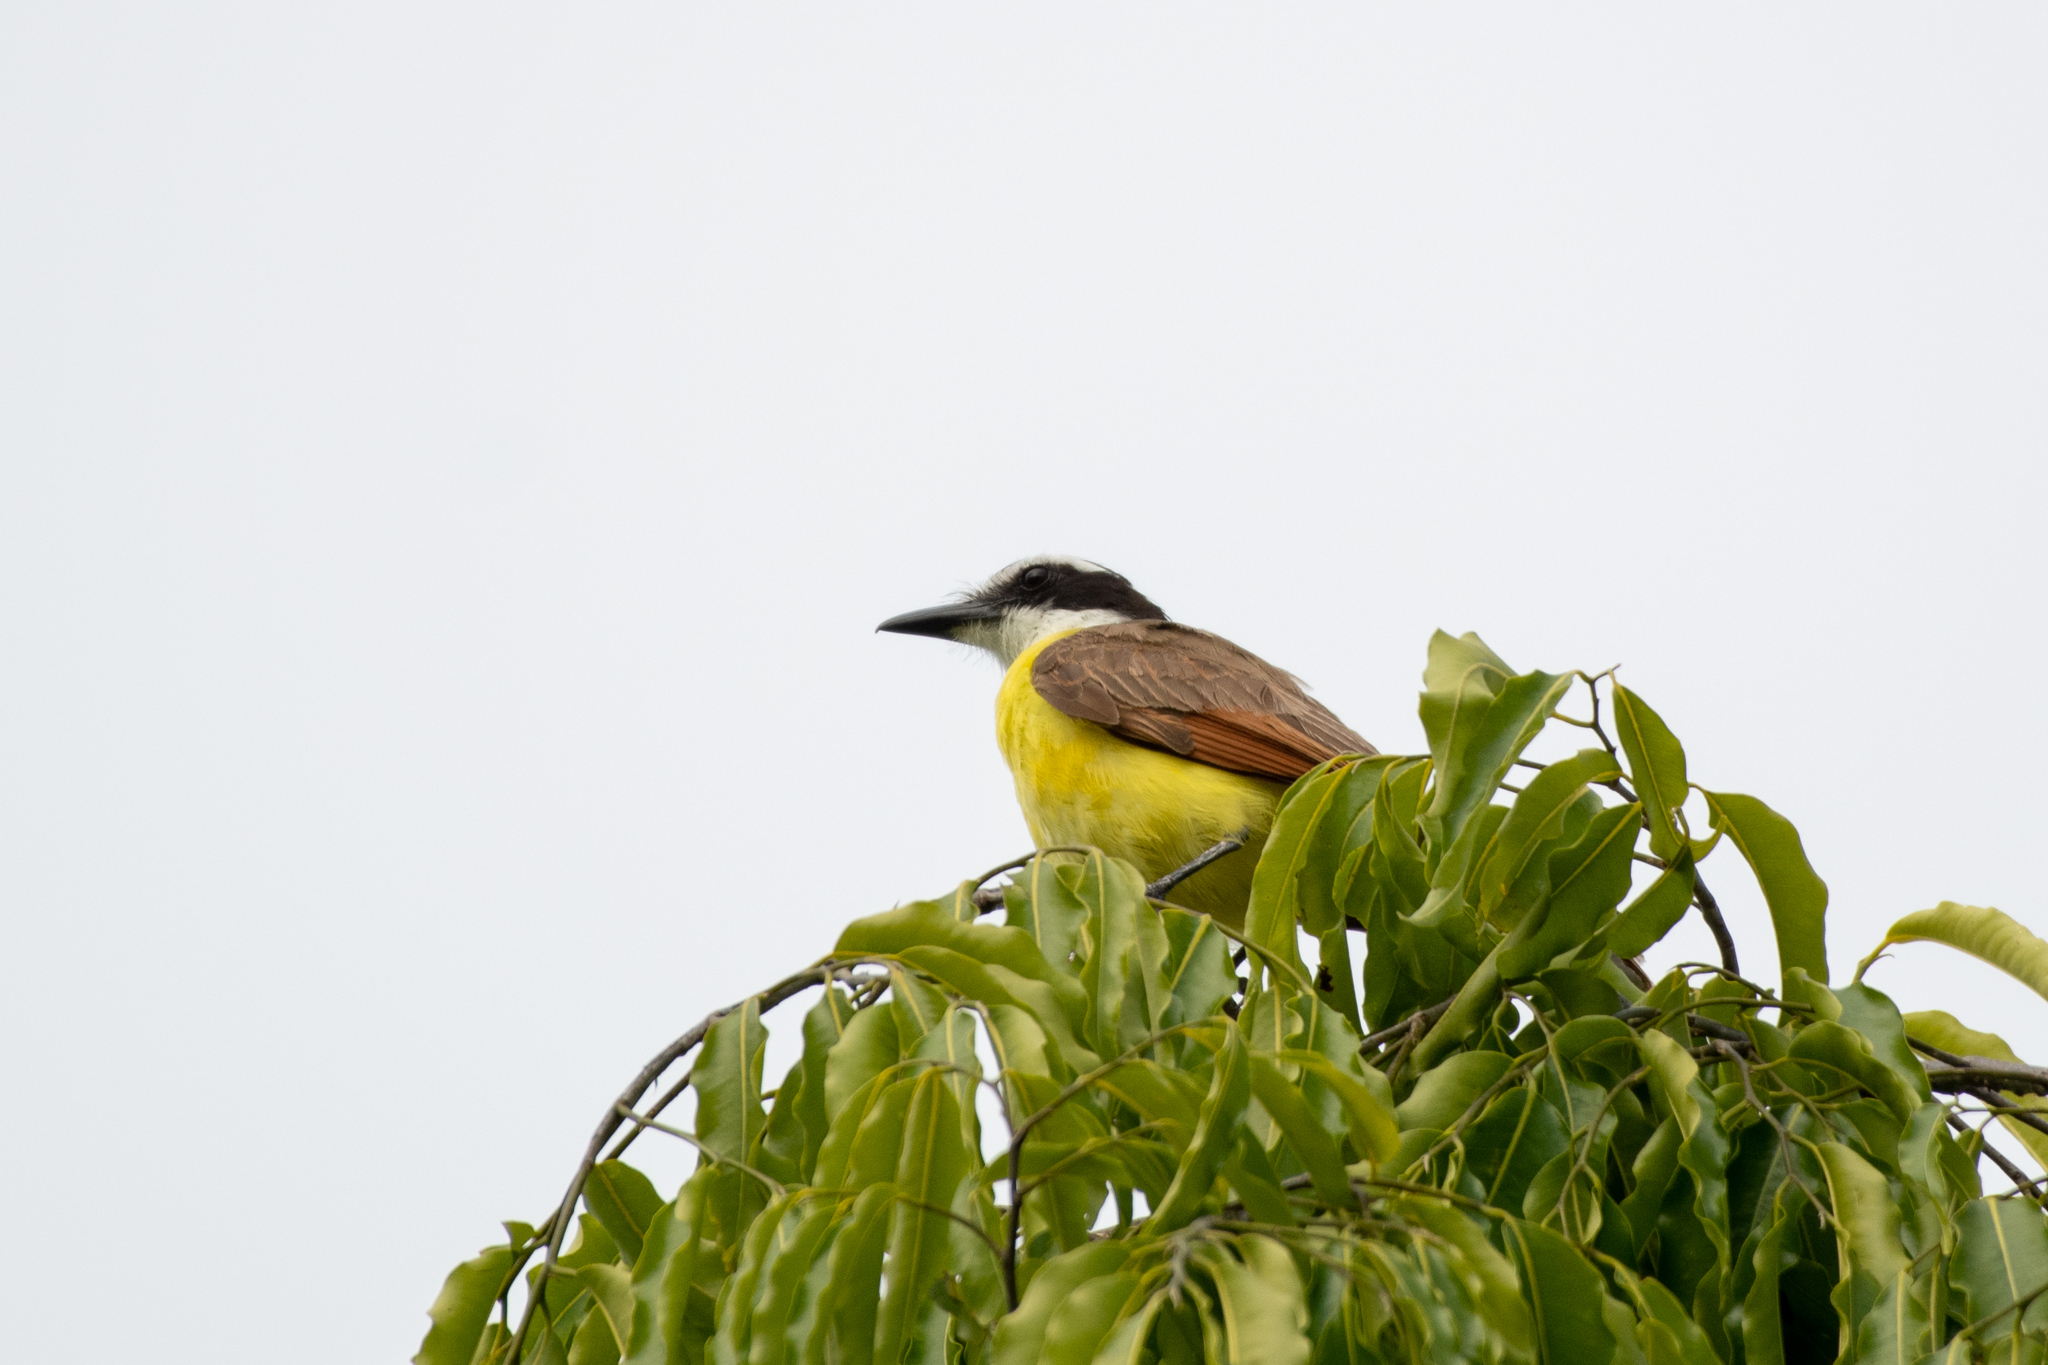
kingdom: Animalia
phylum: Chordata
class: Aves
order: Passeriformes
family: Tyrannidae
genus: Pitangus
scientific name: Pitangus sulphuratus
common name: Great kiskadee
